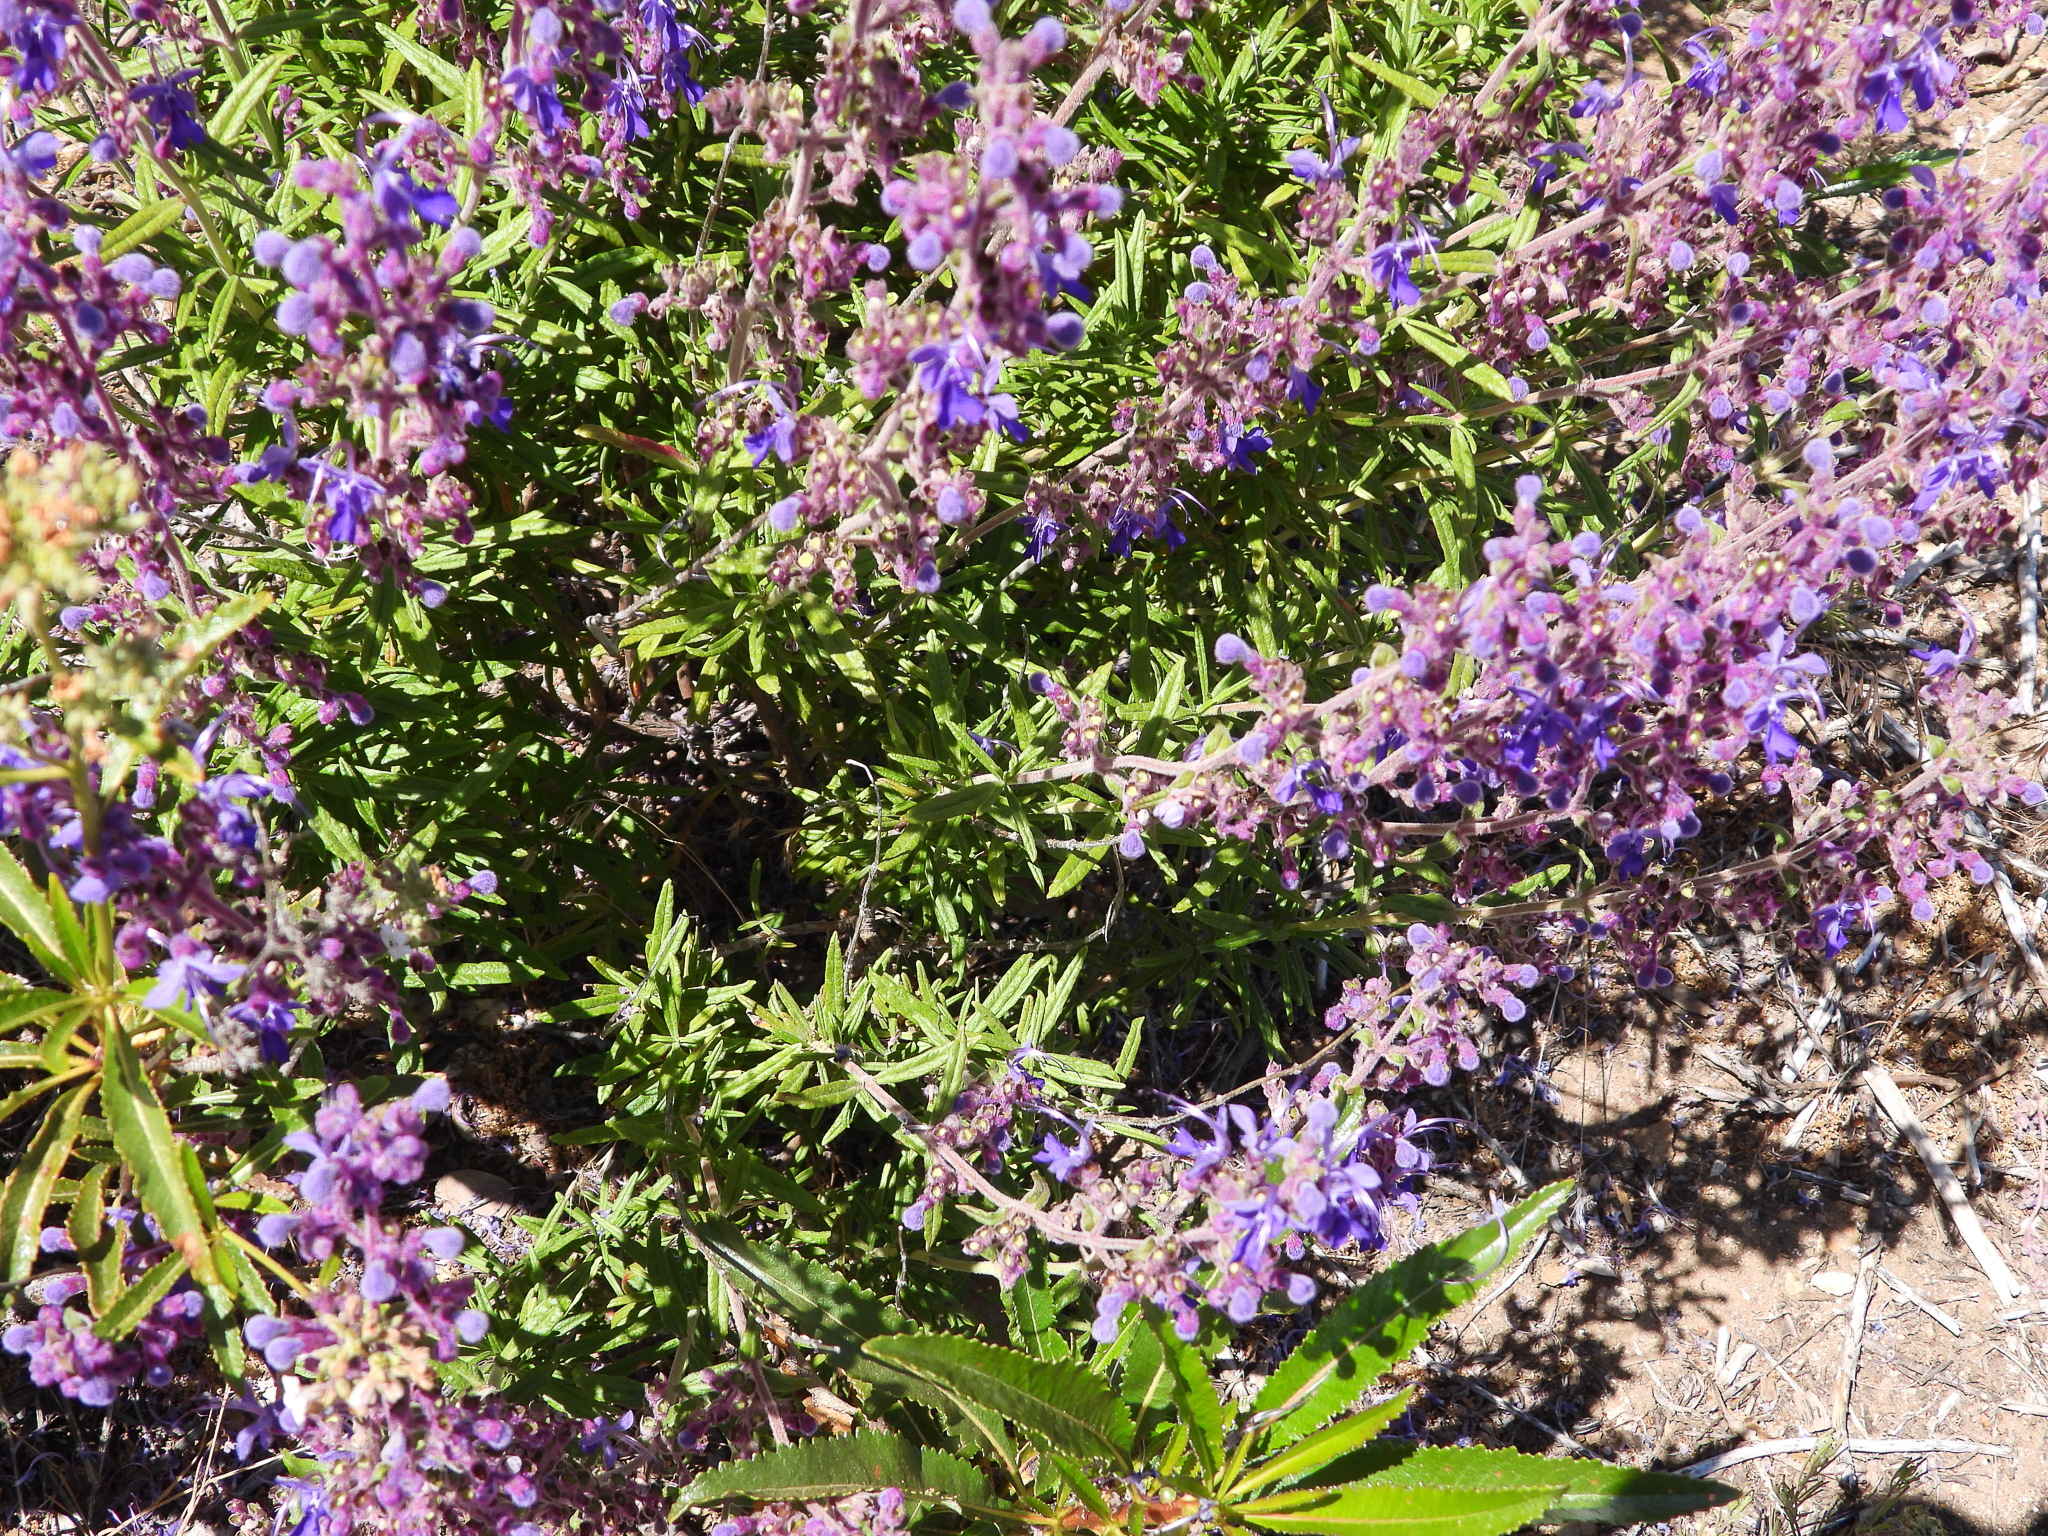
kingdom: Plantae
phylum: Tracheophyta
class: Magnoliopsida
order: Lamiales
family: Lamiaceae
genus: Trichostema
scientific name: Trichostema parishii
